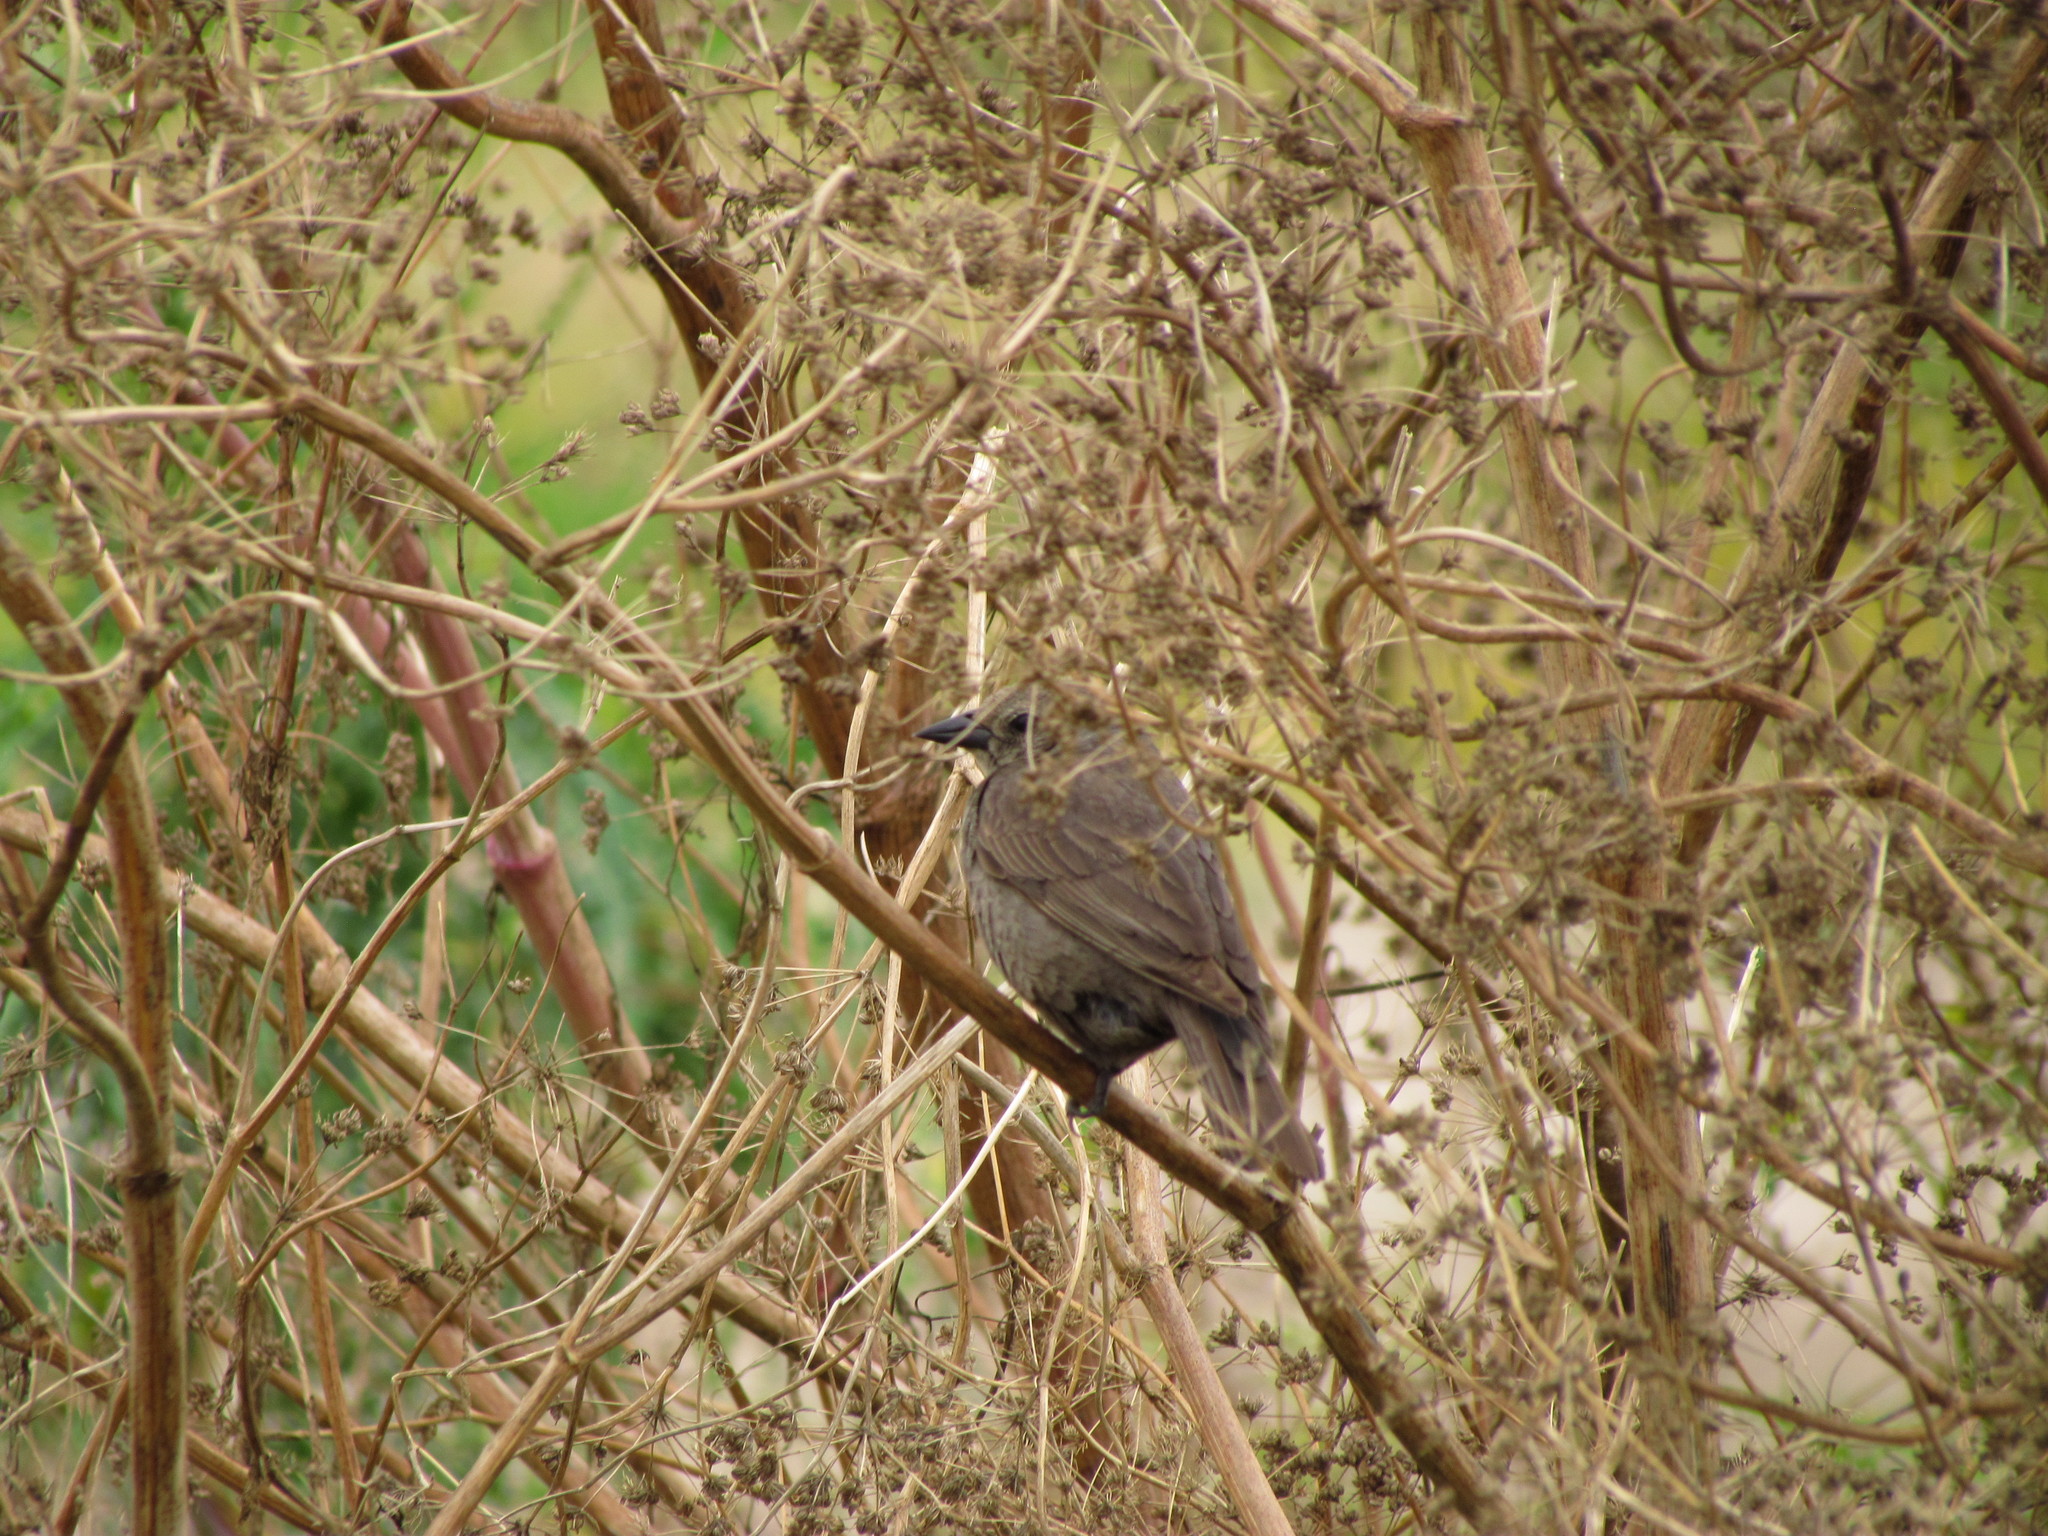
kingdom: Animalia
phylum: Chordata
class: Aves
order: Passeriformes
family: Icteridae
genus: Molothrus
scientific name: Molothrus bonariensis
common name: Shiny cowbird
